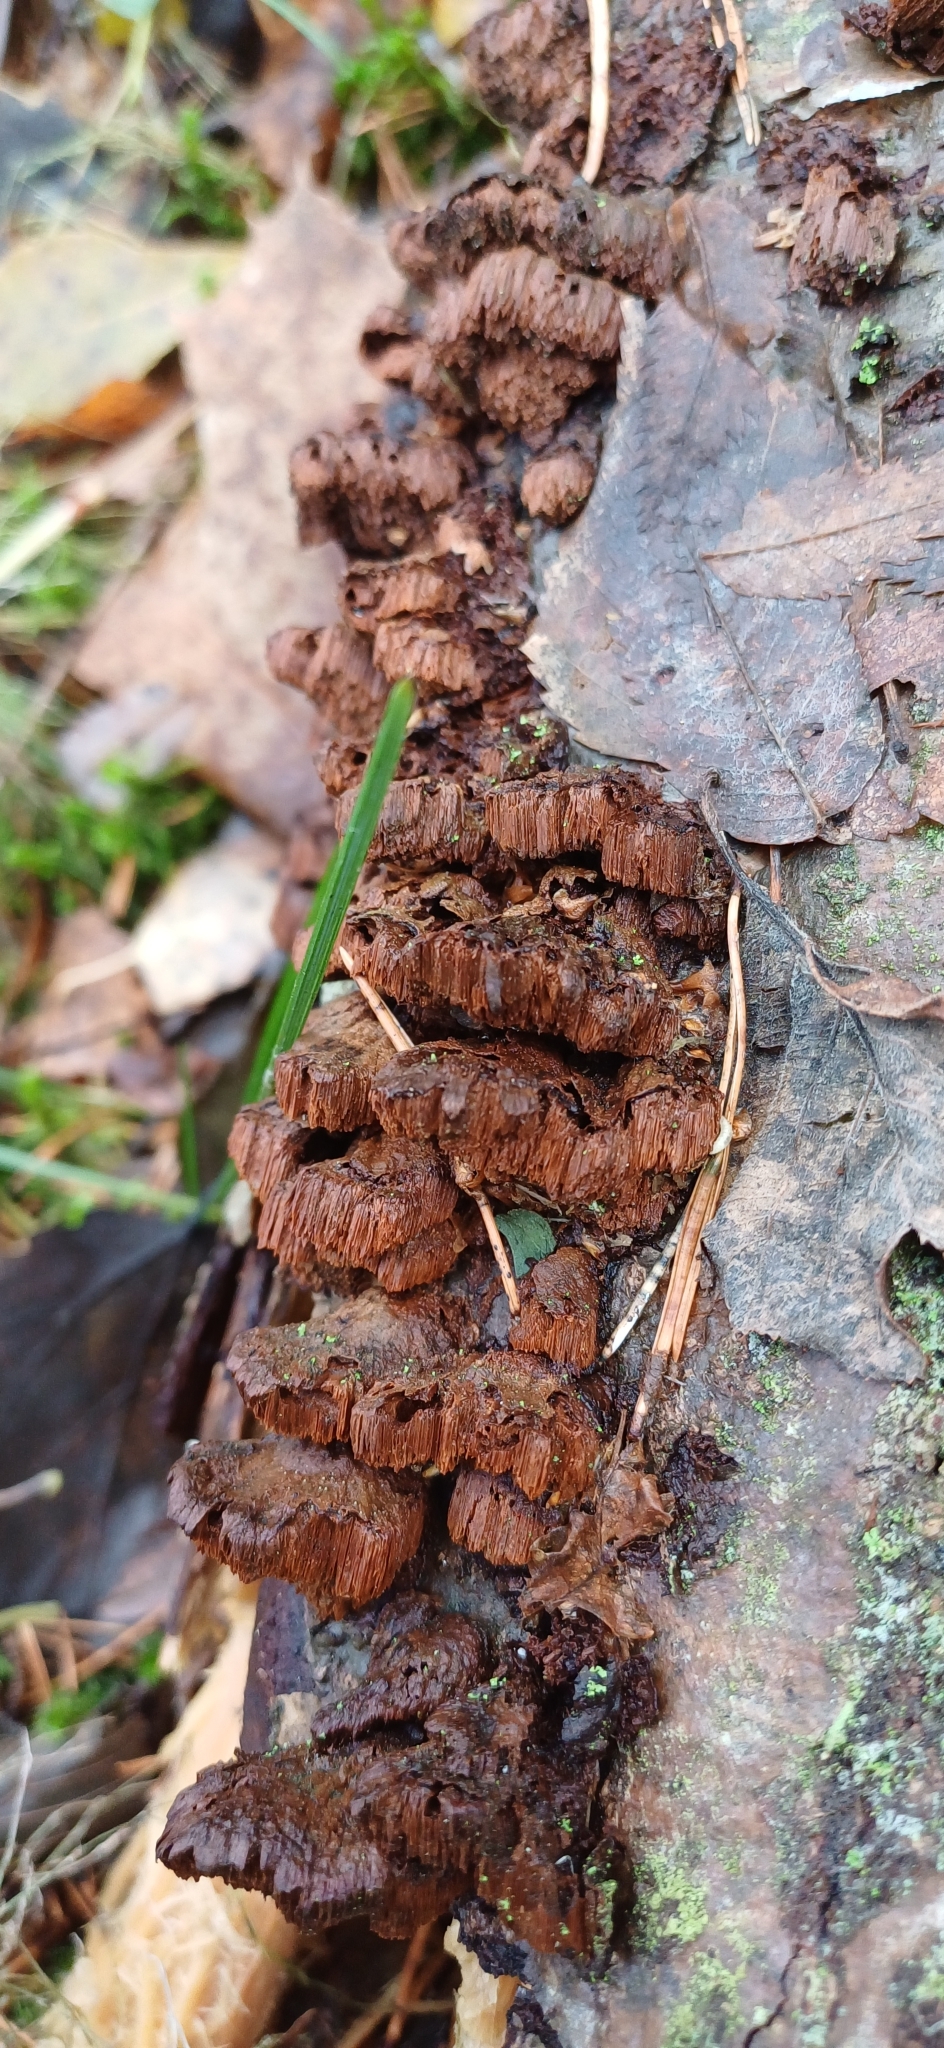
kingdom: Fungi
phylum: Basidiomycota
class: Agaricomycetes
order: Hymenochaetales
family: Hymenochaetaceae
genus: Xanthoporia
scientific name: Xanthoporia radiata
